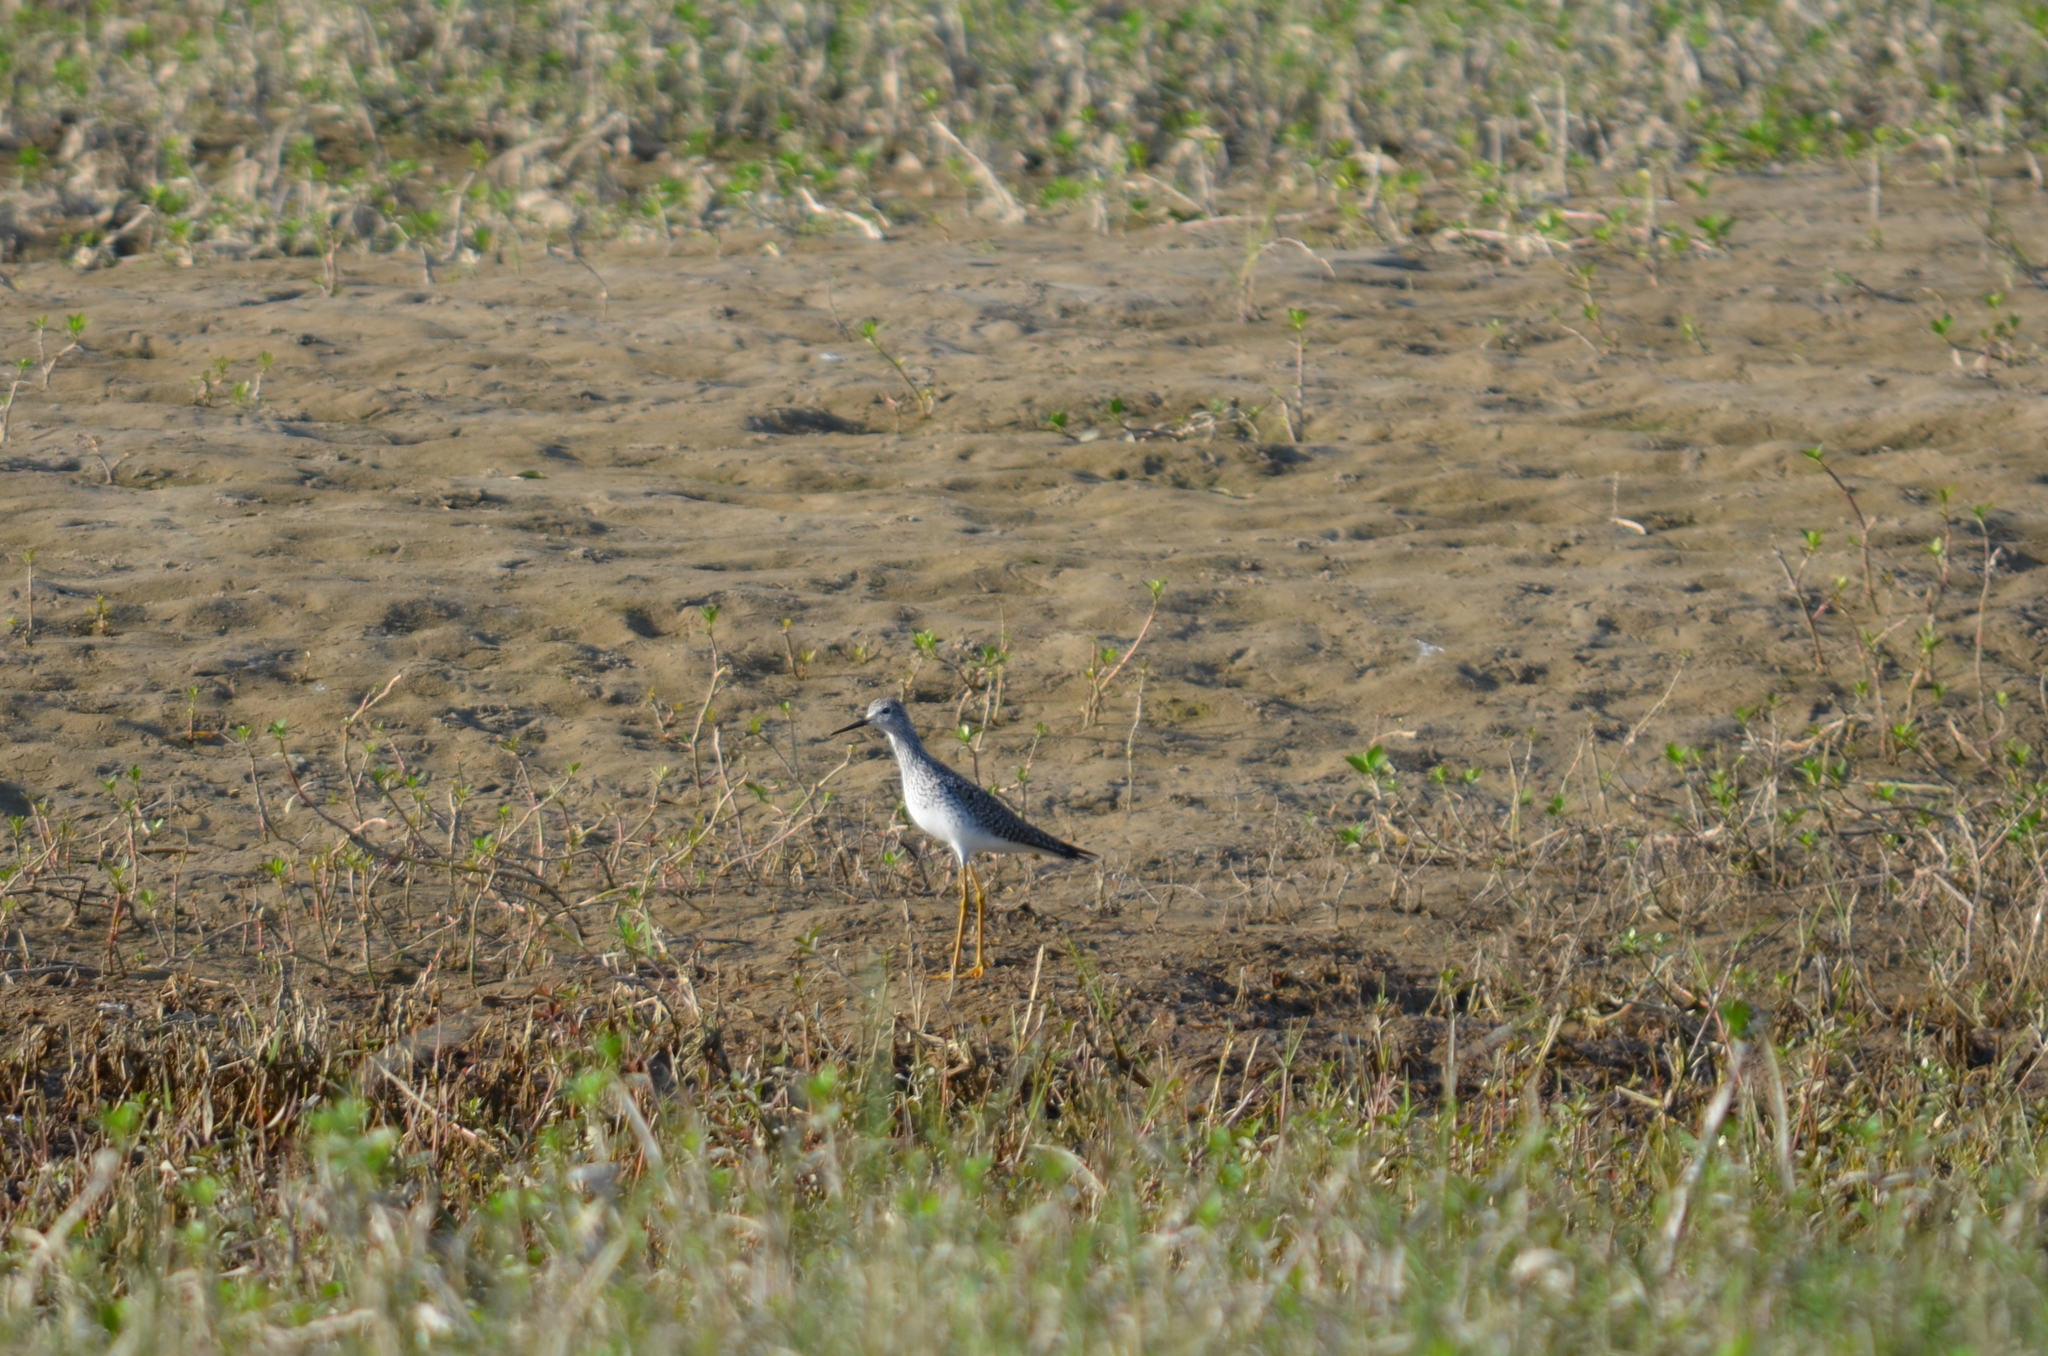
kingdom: Animalia
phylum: Chordata
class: Aves
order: Charadriiformes
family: Scolopacidae
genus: Tringa
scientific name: Tringa flavipes
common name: Lesser yellowlegs
